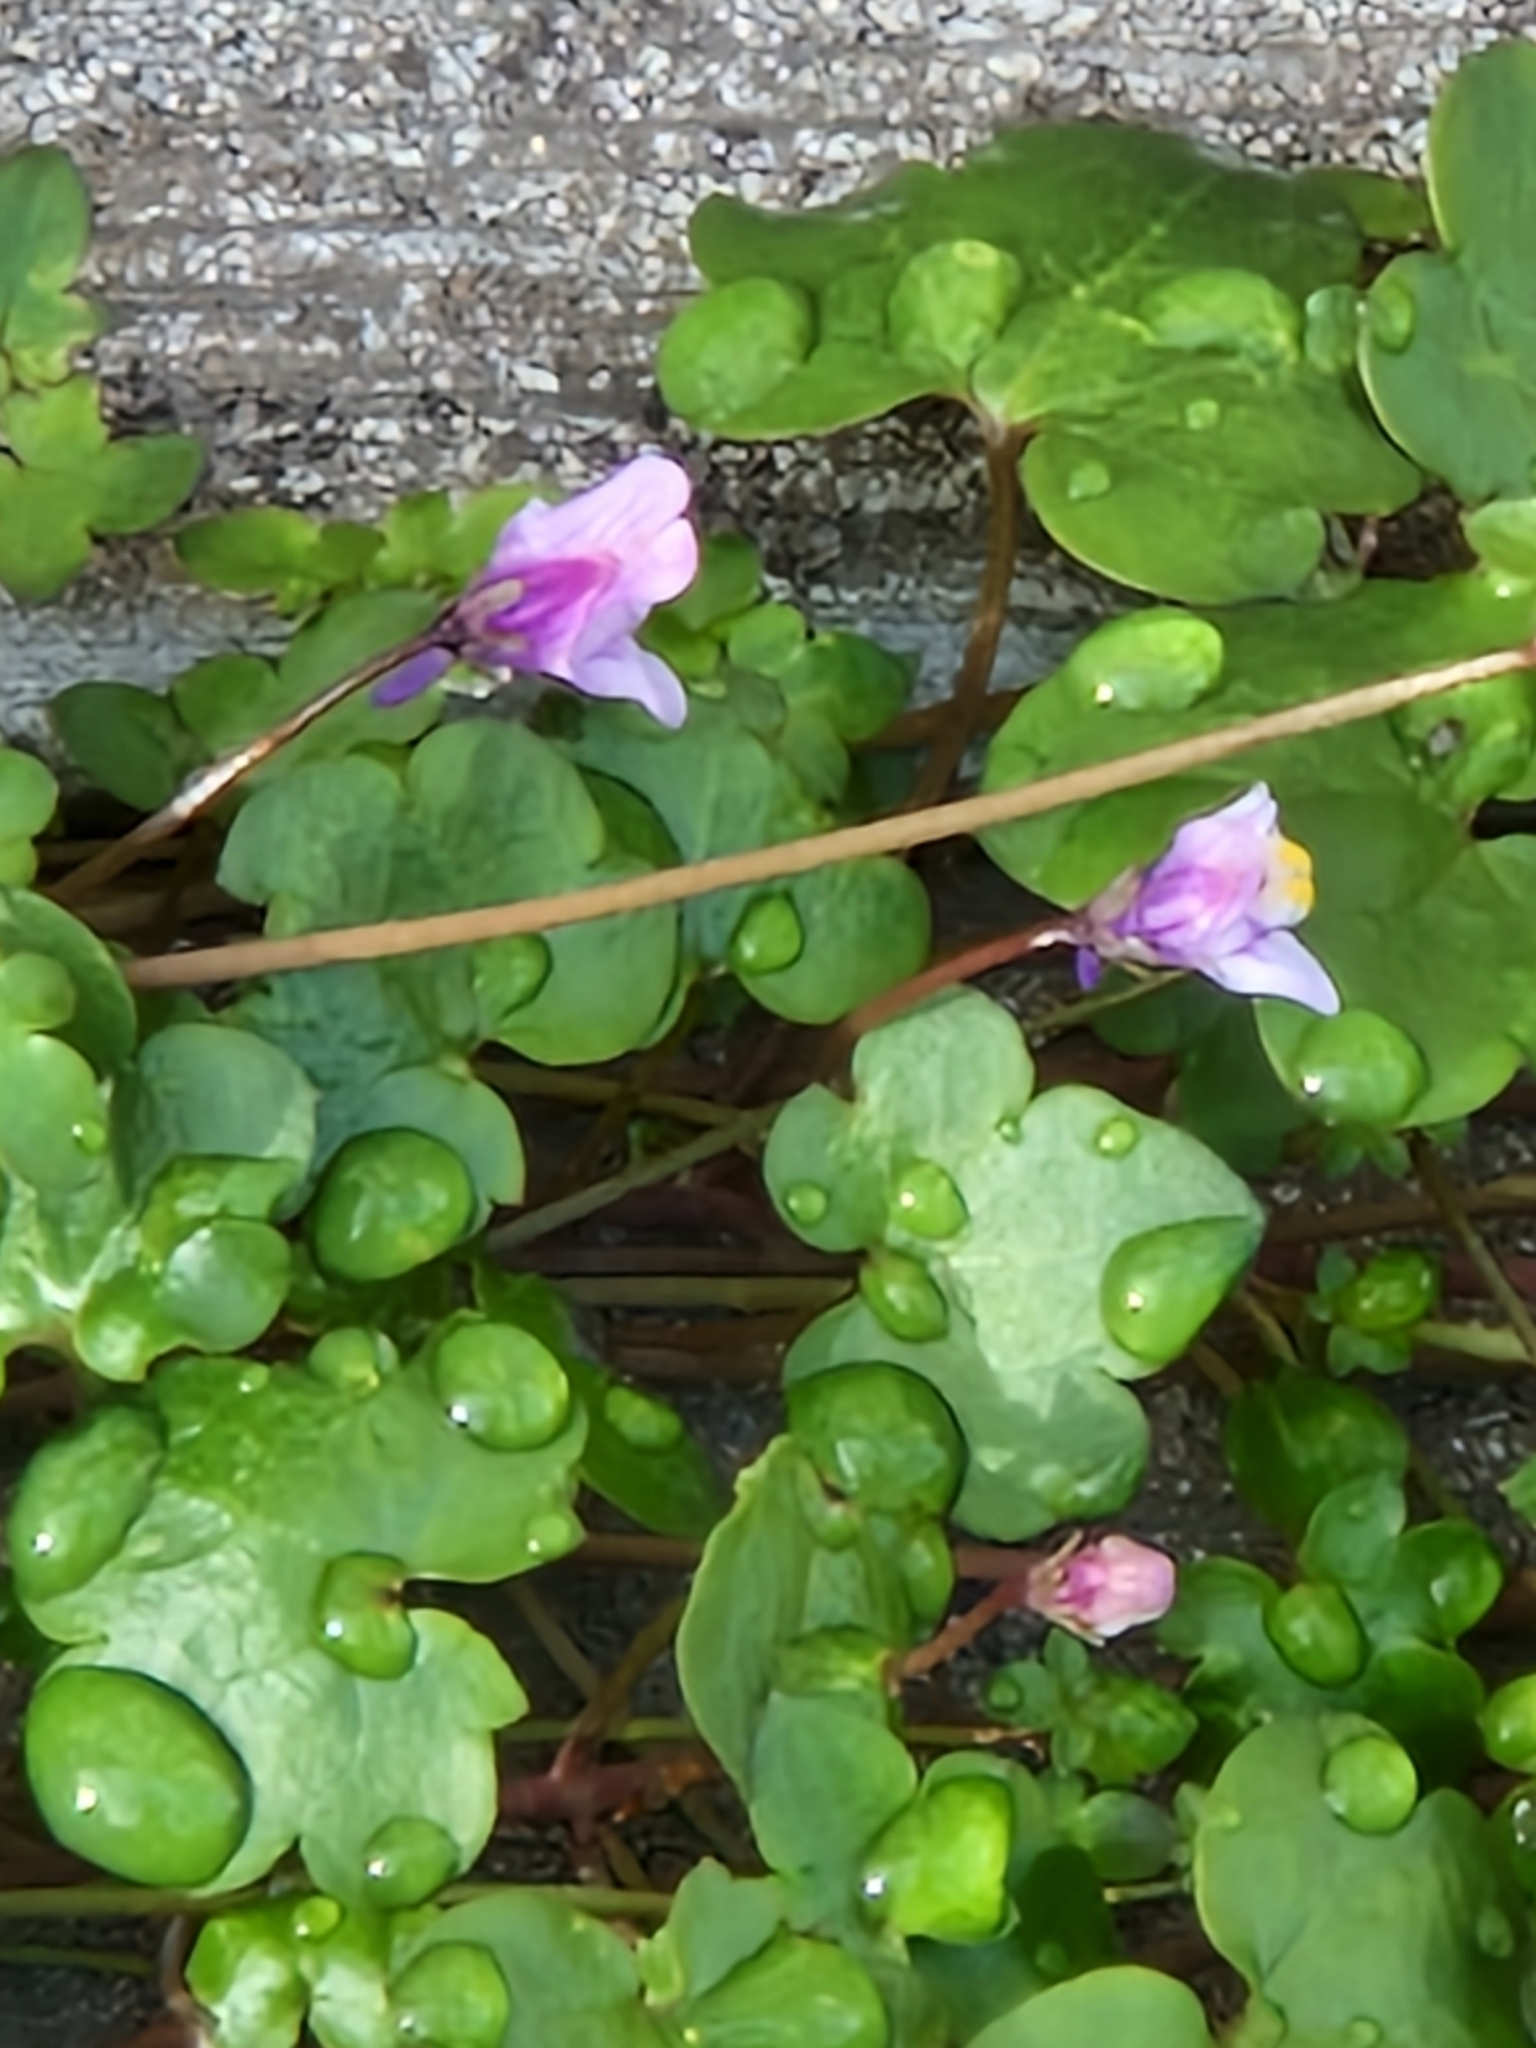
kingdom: Plantae
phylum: Tracheophyta
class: Magnoliopsida
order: Lamiales
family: Plantaginaceae
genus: Cymbalaria
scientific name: Cymbalaria muralis
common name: Ivy-leaved toadflax
